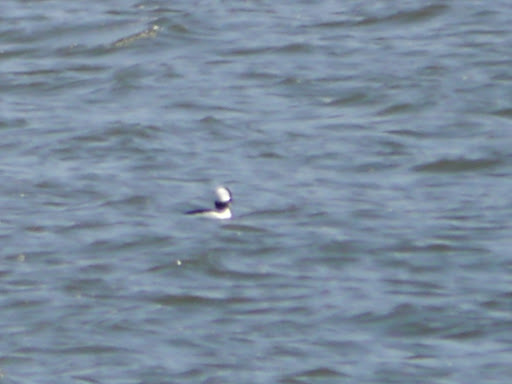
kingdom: Animalia
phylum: Chordata
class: Aves
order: Anseriformes
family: Anatidae
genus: Bucephala
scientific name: Bucephala albeola
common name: Bufflehead
